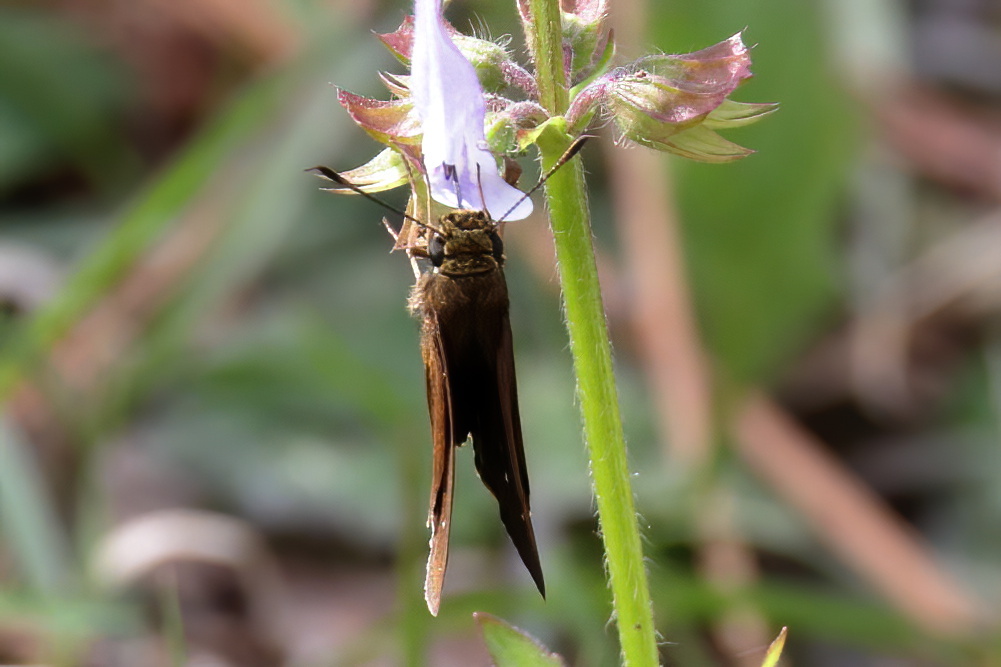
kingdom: Animalia
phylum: Arthropoda
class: Insecta
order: Lepidoptera
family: Hesperiidae
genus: Oligoria
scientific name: Oligoria maculata
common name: Twin-spot skipper
